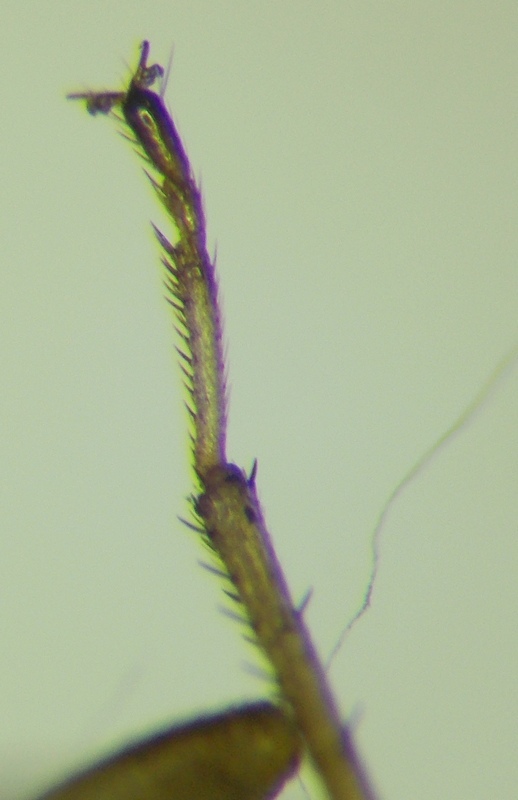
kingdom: Animalia
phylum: Arthropoda
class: Insecta
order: Hemiptera
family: Rhyparochromidae
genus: Emblethis
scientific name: Emblethis denticollis
